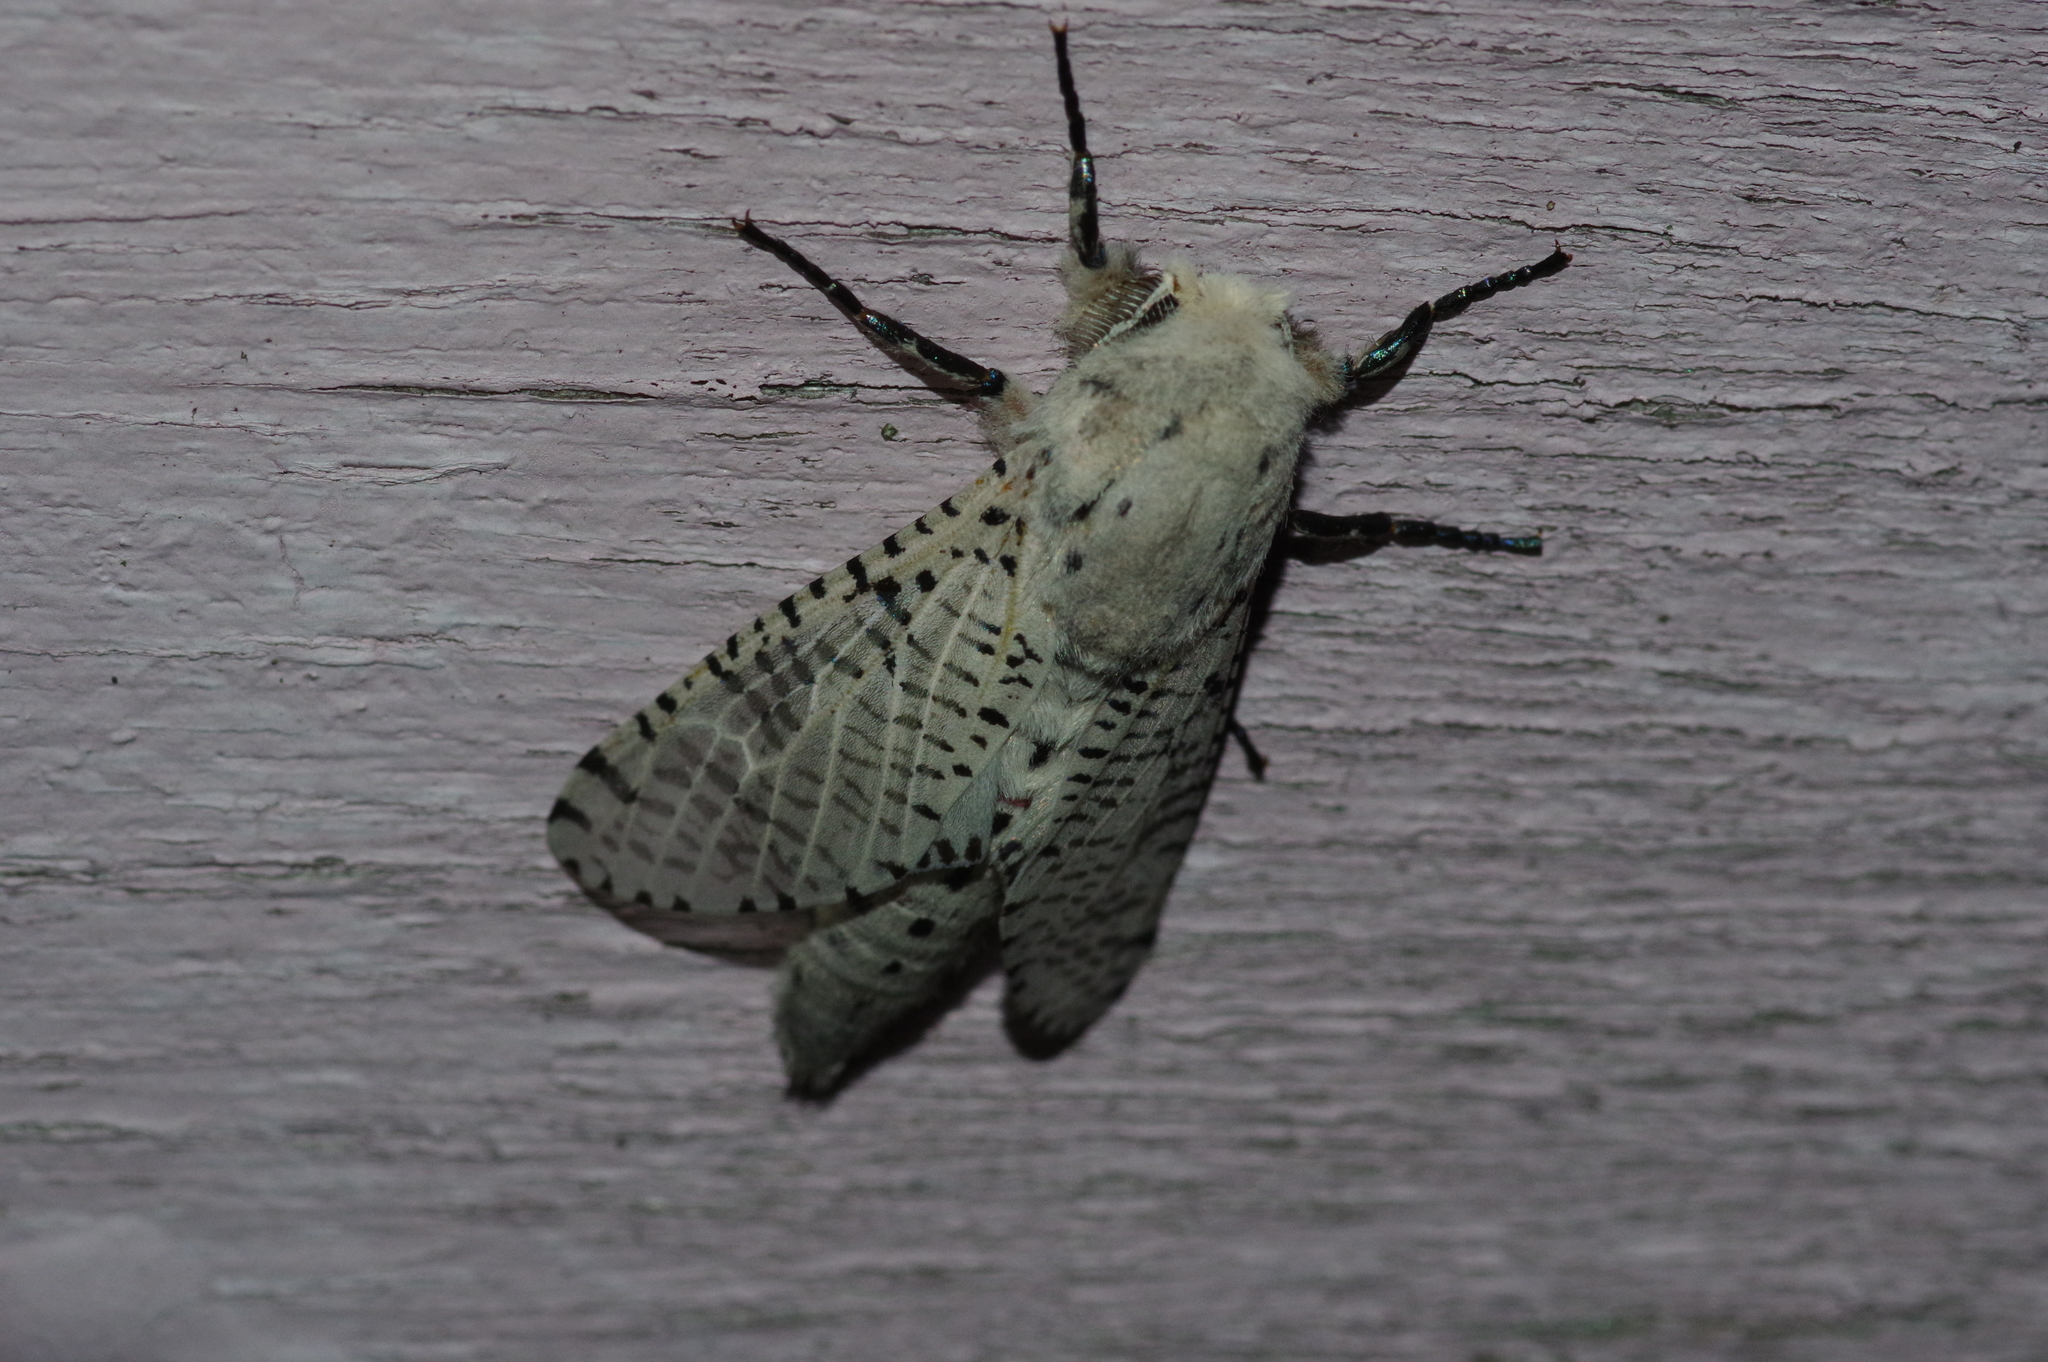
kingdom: Animalia
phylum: Arthropoda
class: Insecta
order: Lepidoptera
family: Cossidae
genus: Orientozeuzera
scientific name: Orientozeuzera caudata
